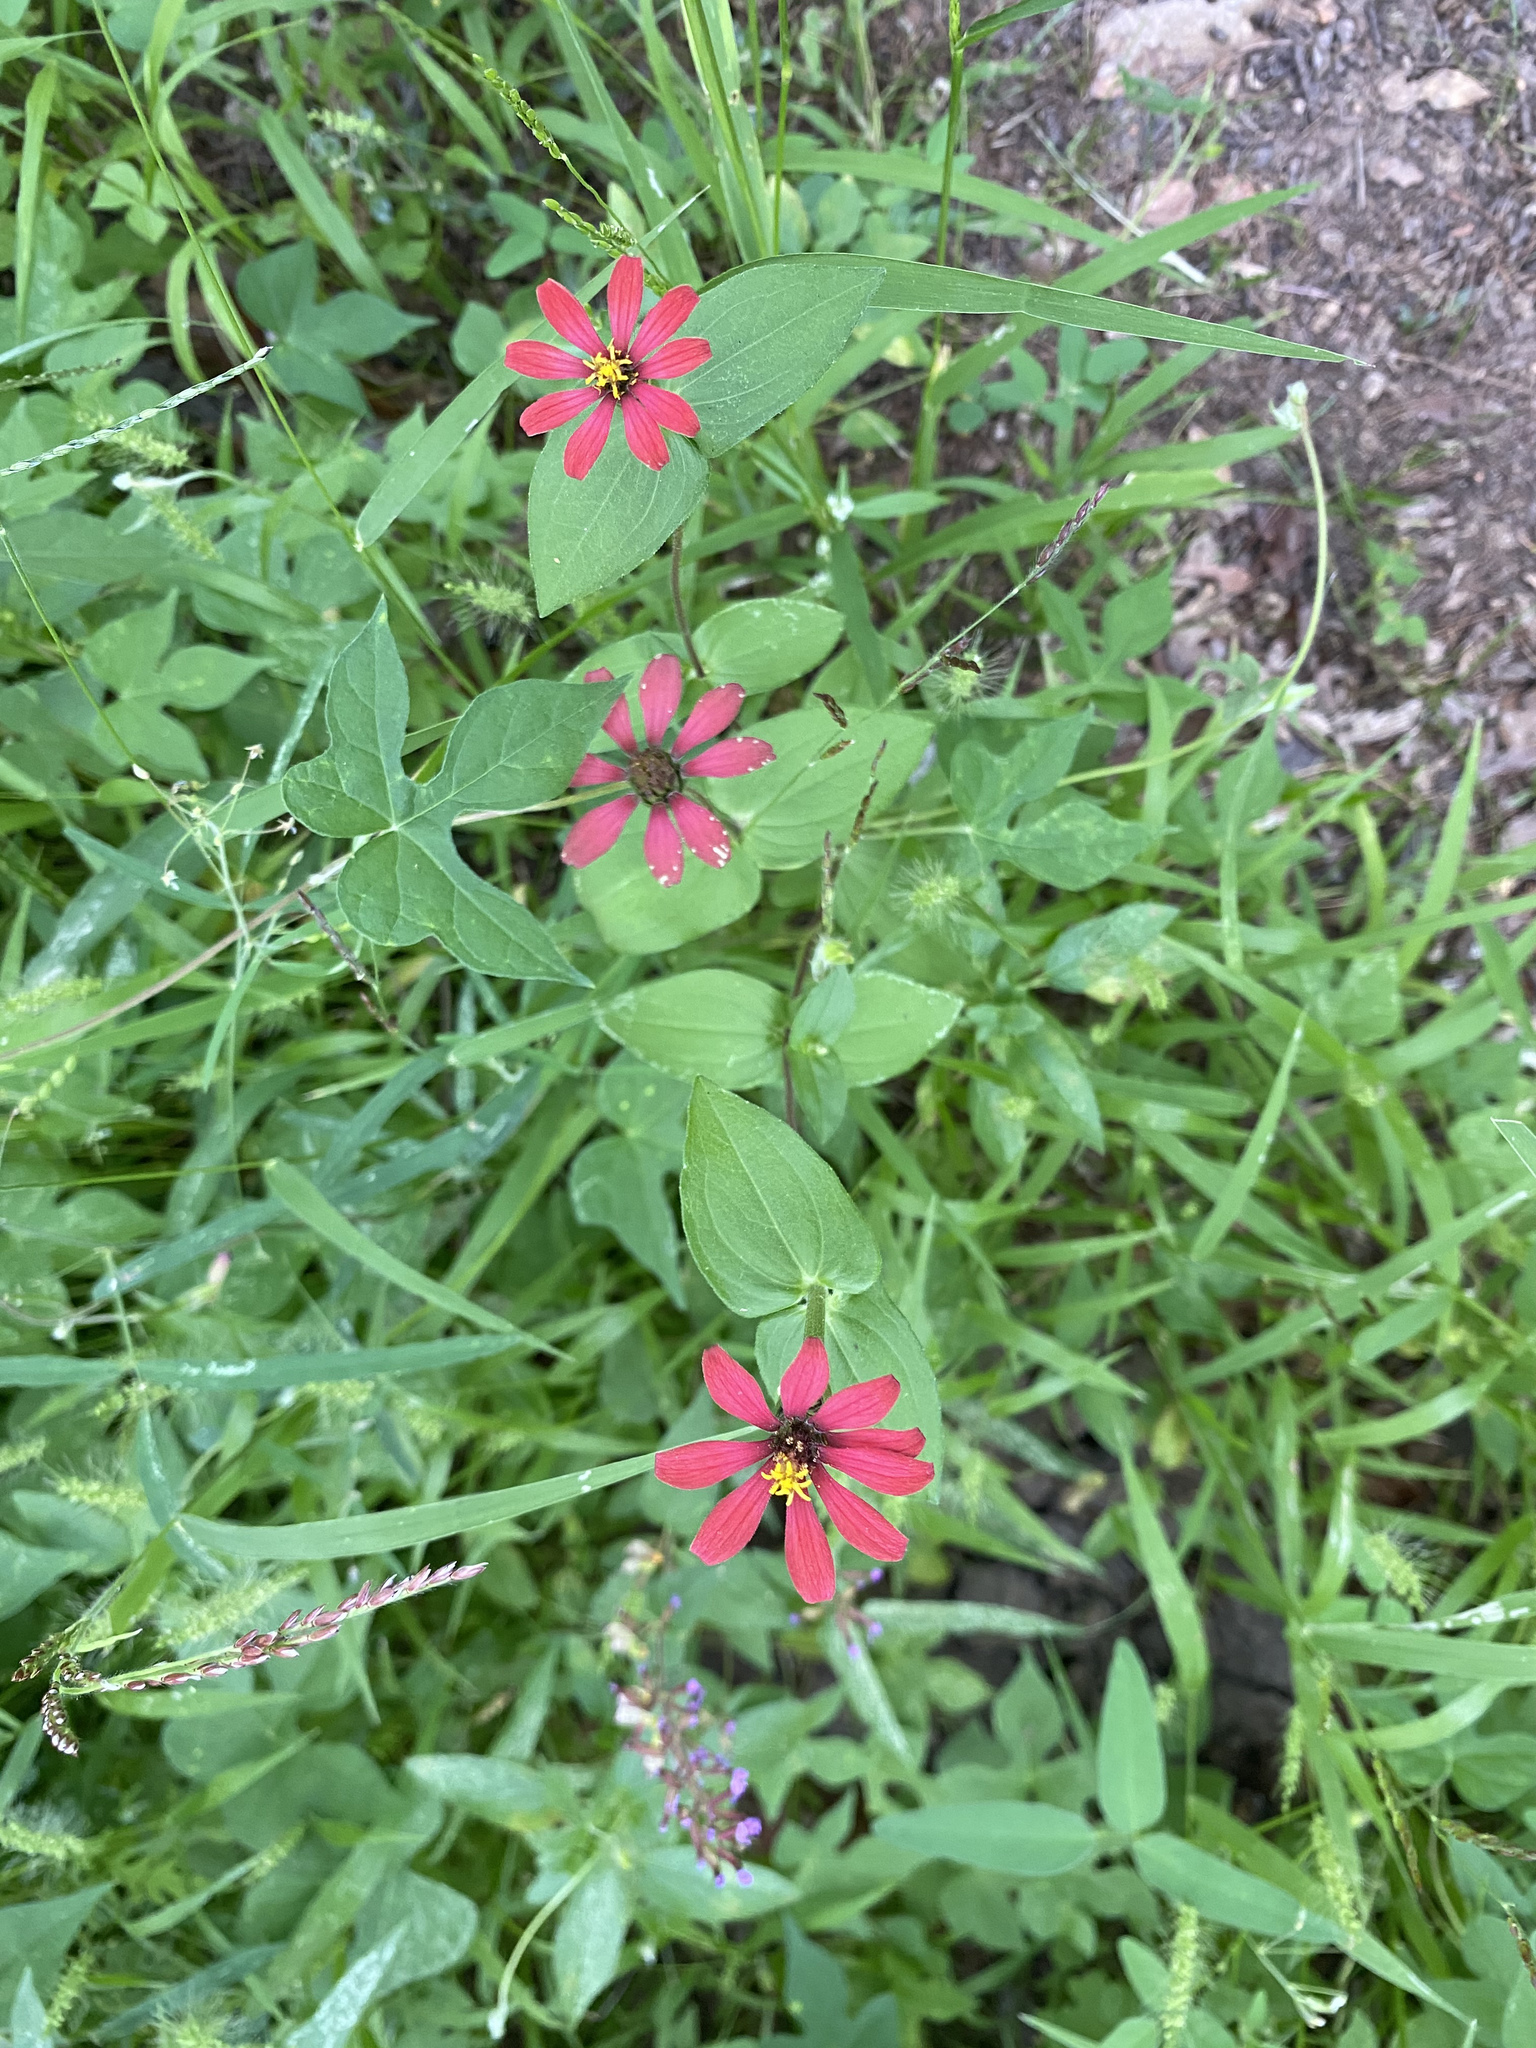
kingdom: Plantae
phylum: Tracheophyta
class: Magnoliopsida
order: Asterales
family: Asteraceae
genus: Zinnia
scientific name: Zinnia peruviana
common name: Peruvian zinnia
